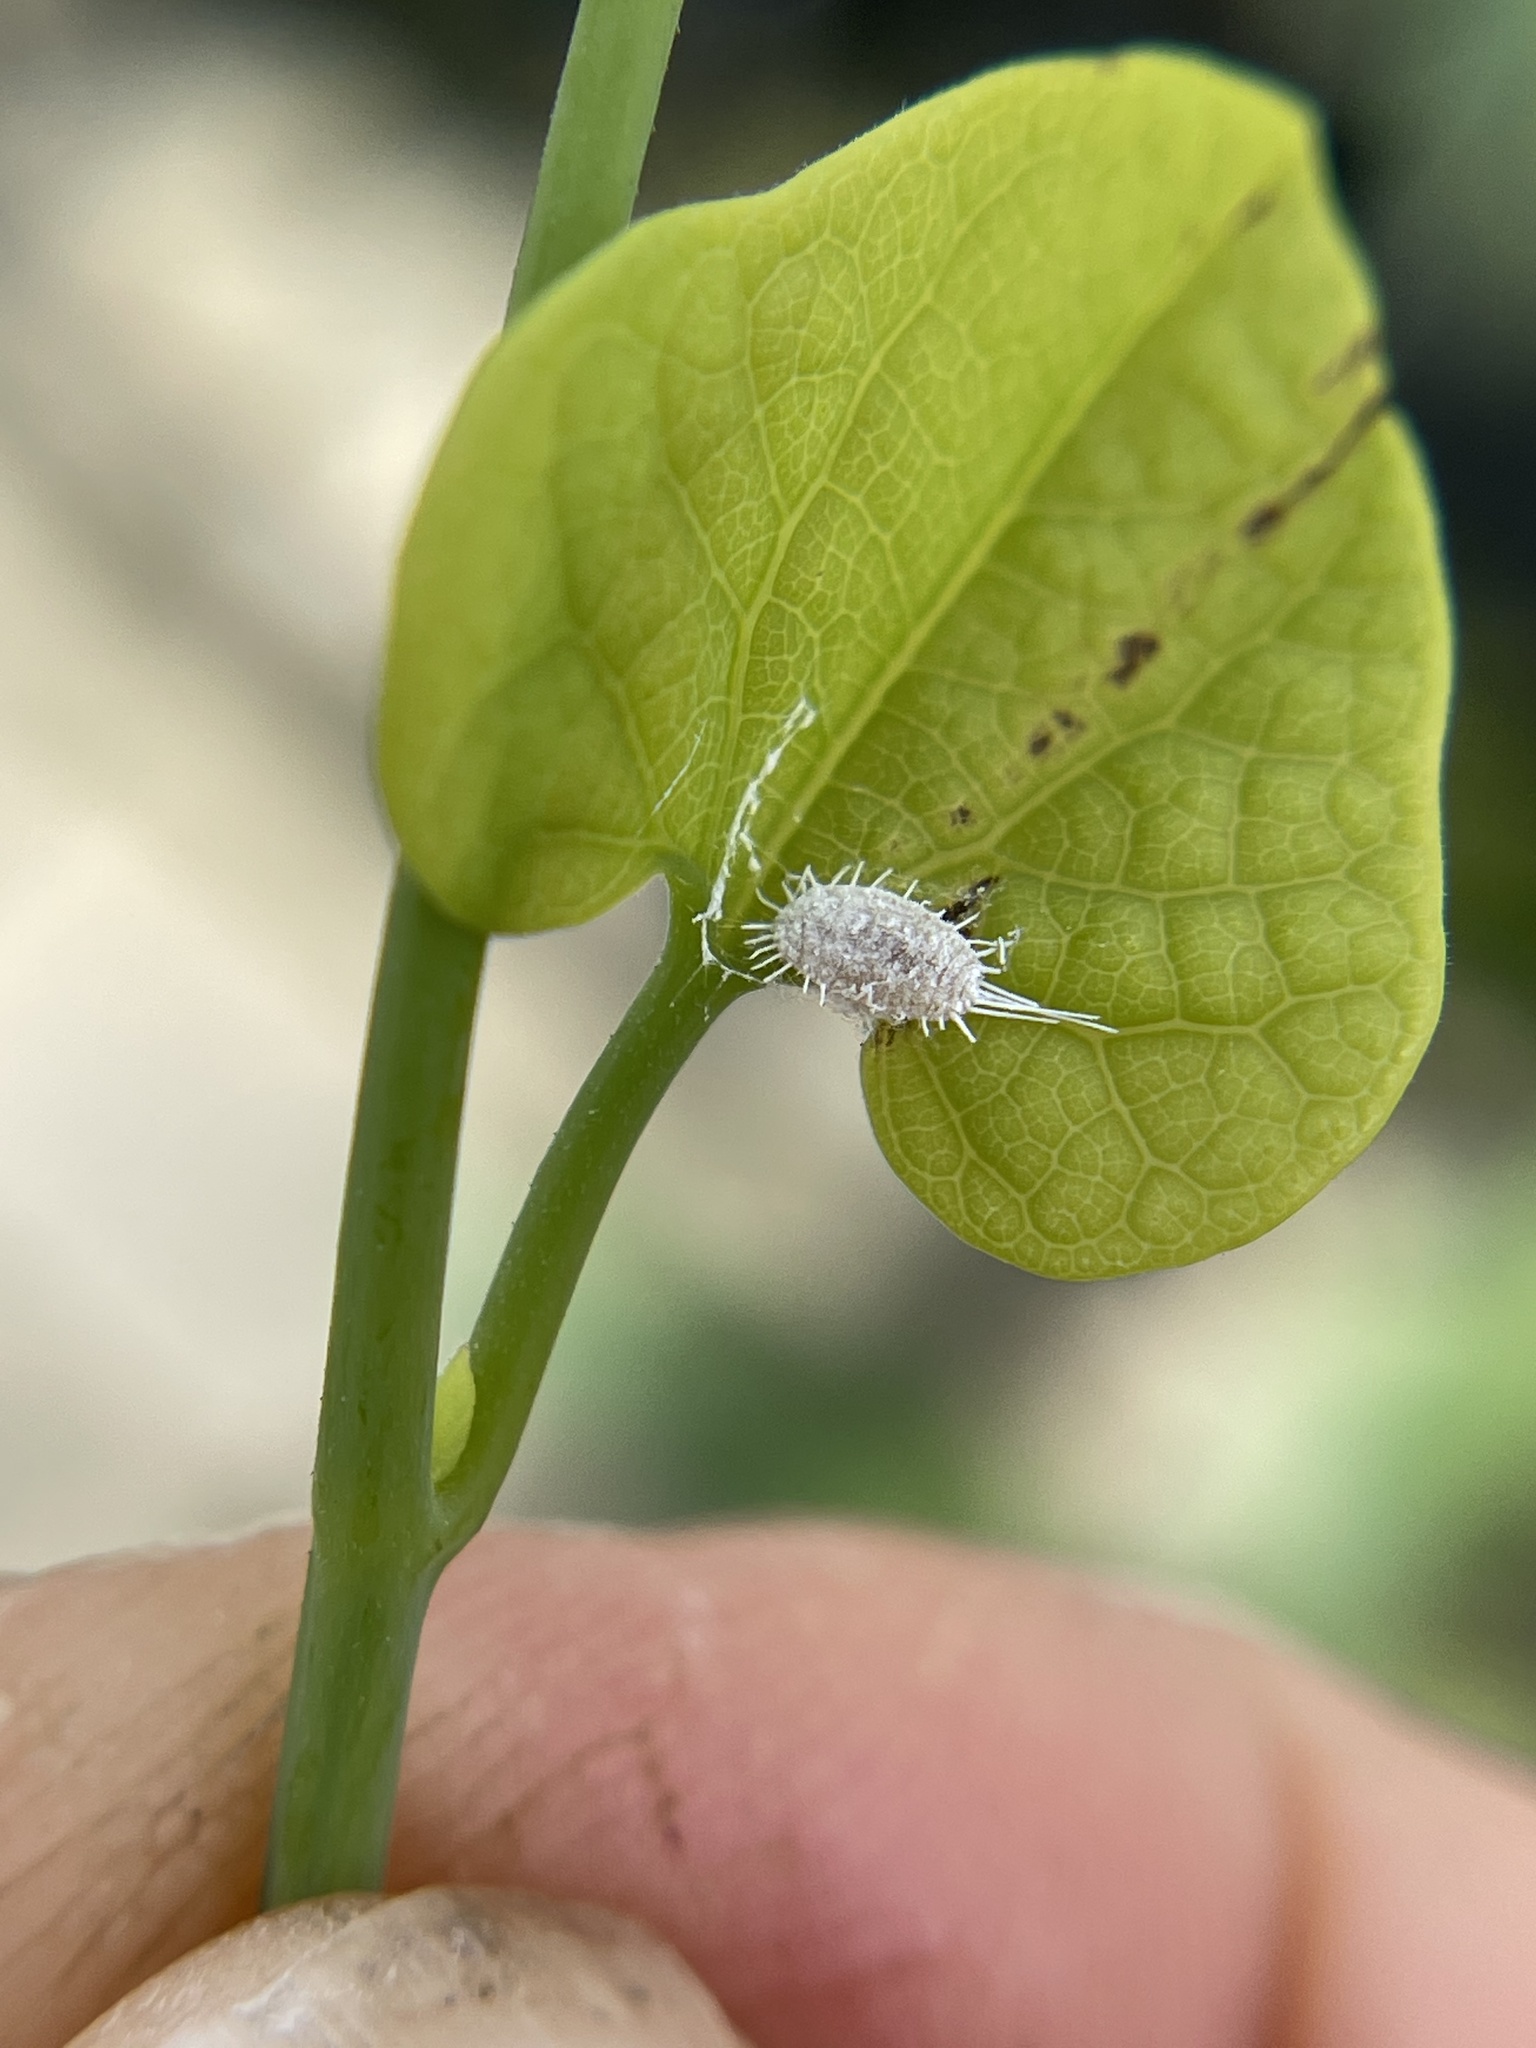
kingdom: Animalia
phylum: Arthropoda
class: Insecta
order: Hemiptera
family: Pseudococcidae
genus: Pseudococcus
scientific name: Pseudococcus longispinus
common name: Long-tailed mealybug
